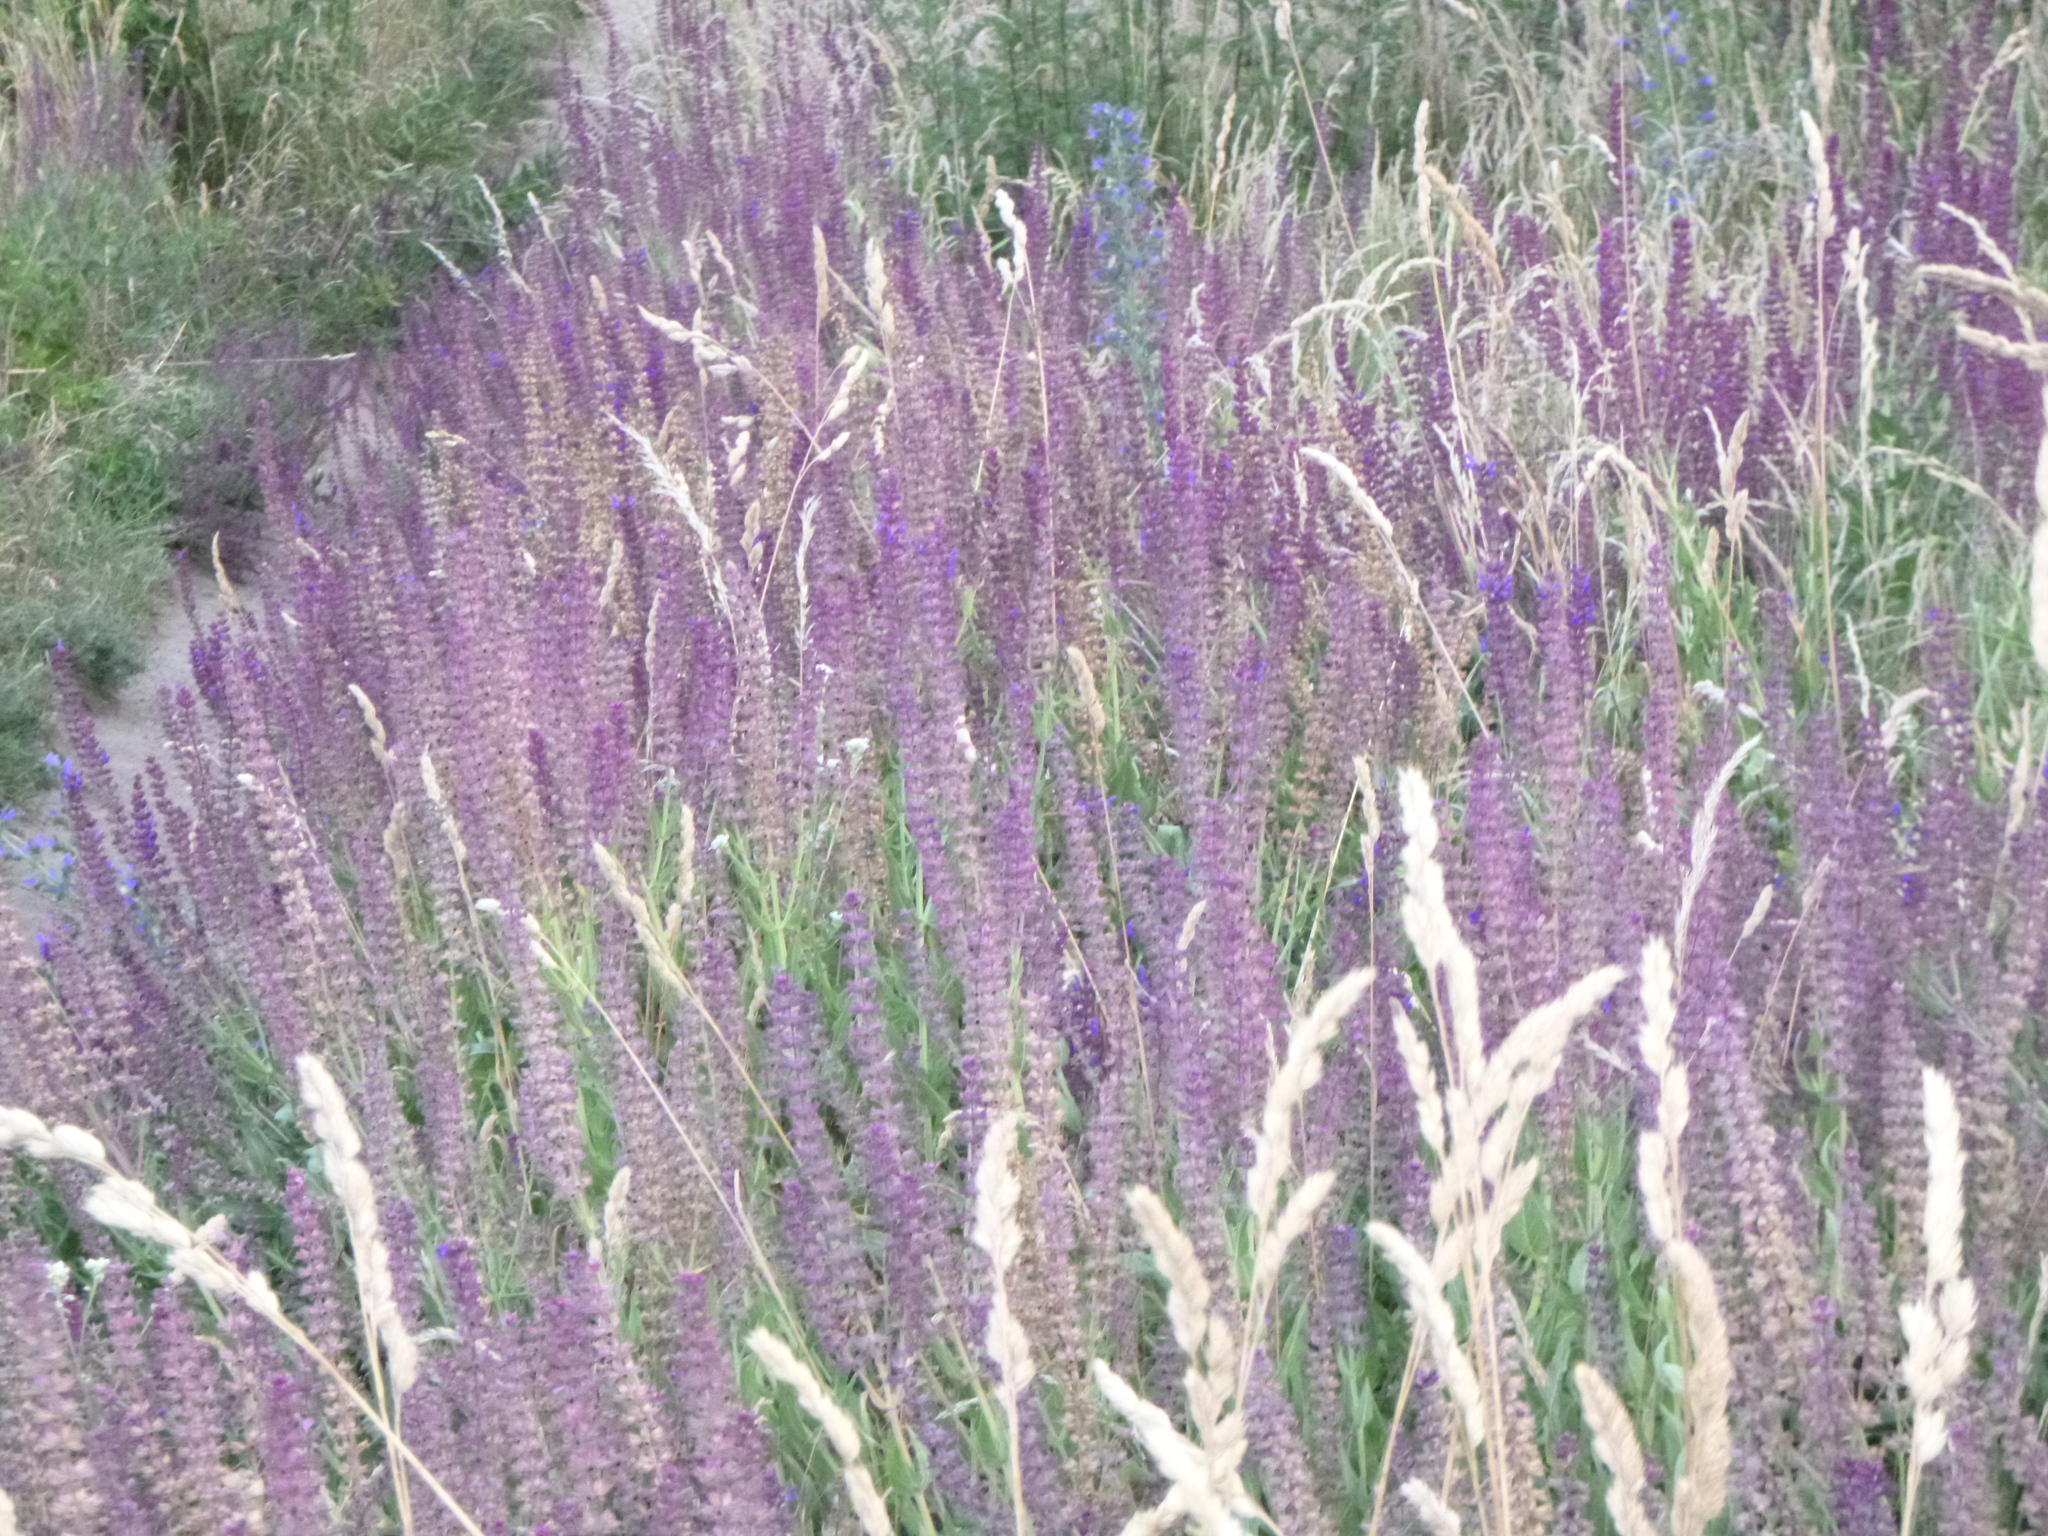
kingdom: Plantae
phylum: Tracheophyta
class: Magnoliopsida
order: Lamiales
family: Lamiaceae
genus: Salvia
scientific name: Salvia nemorosa
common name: Balkan clary
